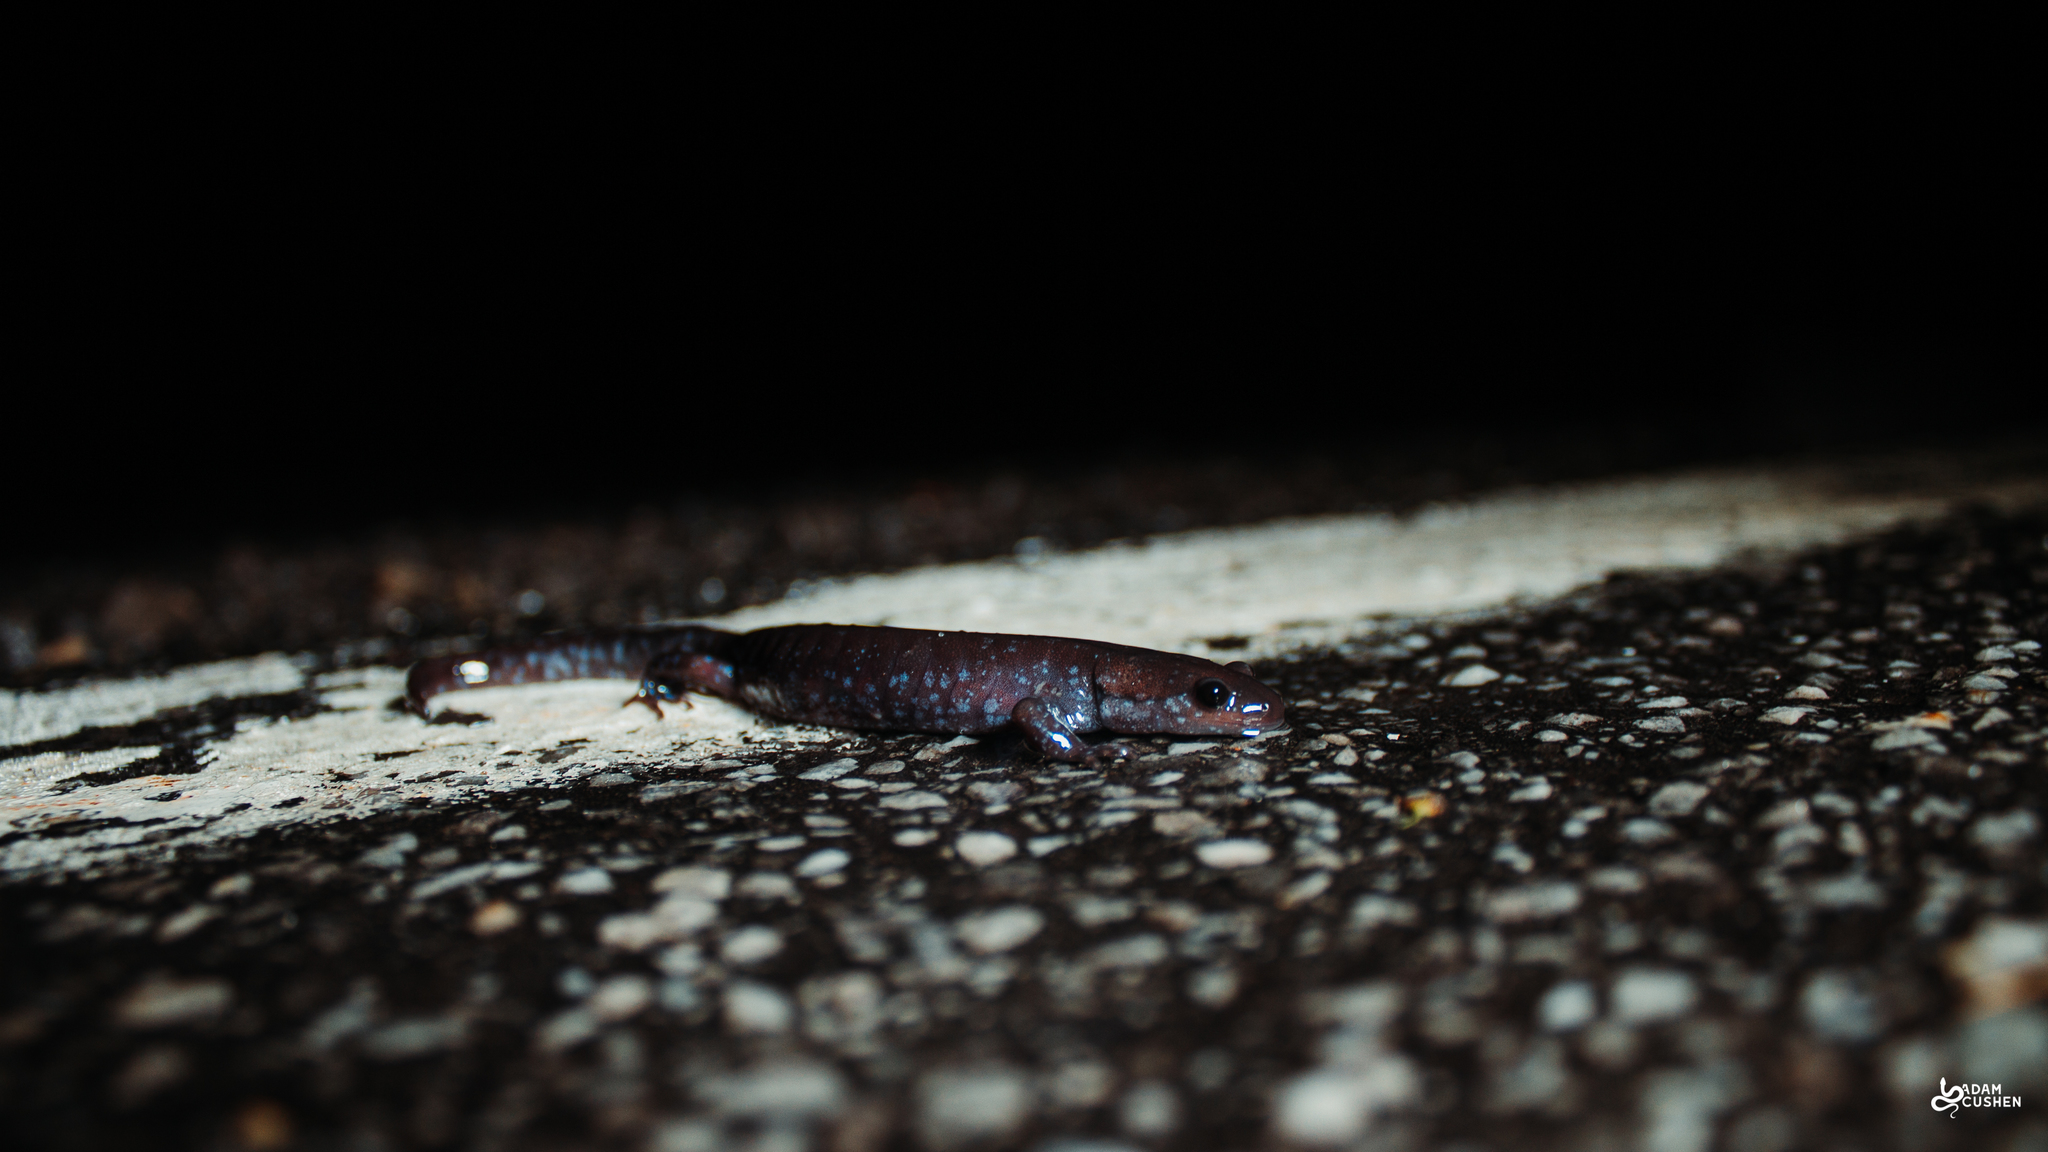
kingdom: Animalia
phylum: Chordata
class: Amphibia
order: Caudata
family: Ambystomatidae
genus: Ambystoma
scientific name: Ambystoma laterale
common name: Blue-spotted salamander
